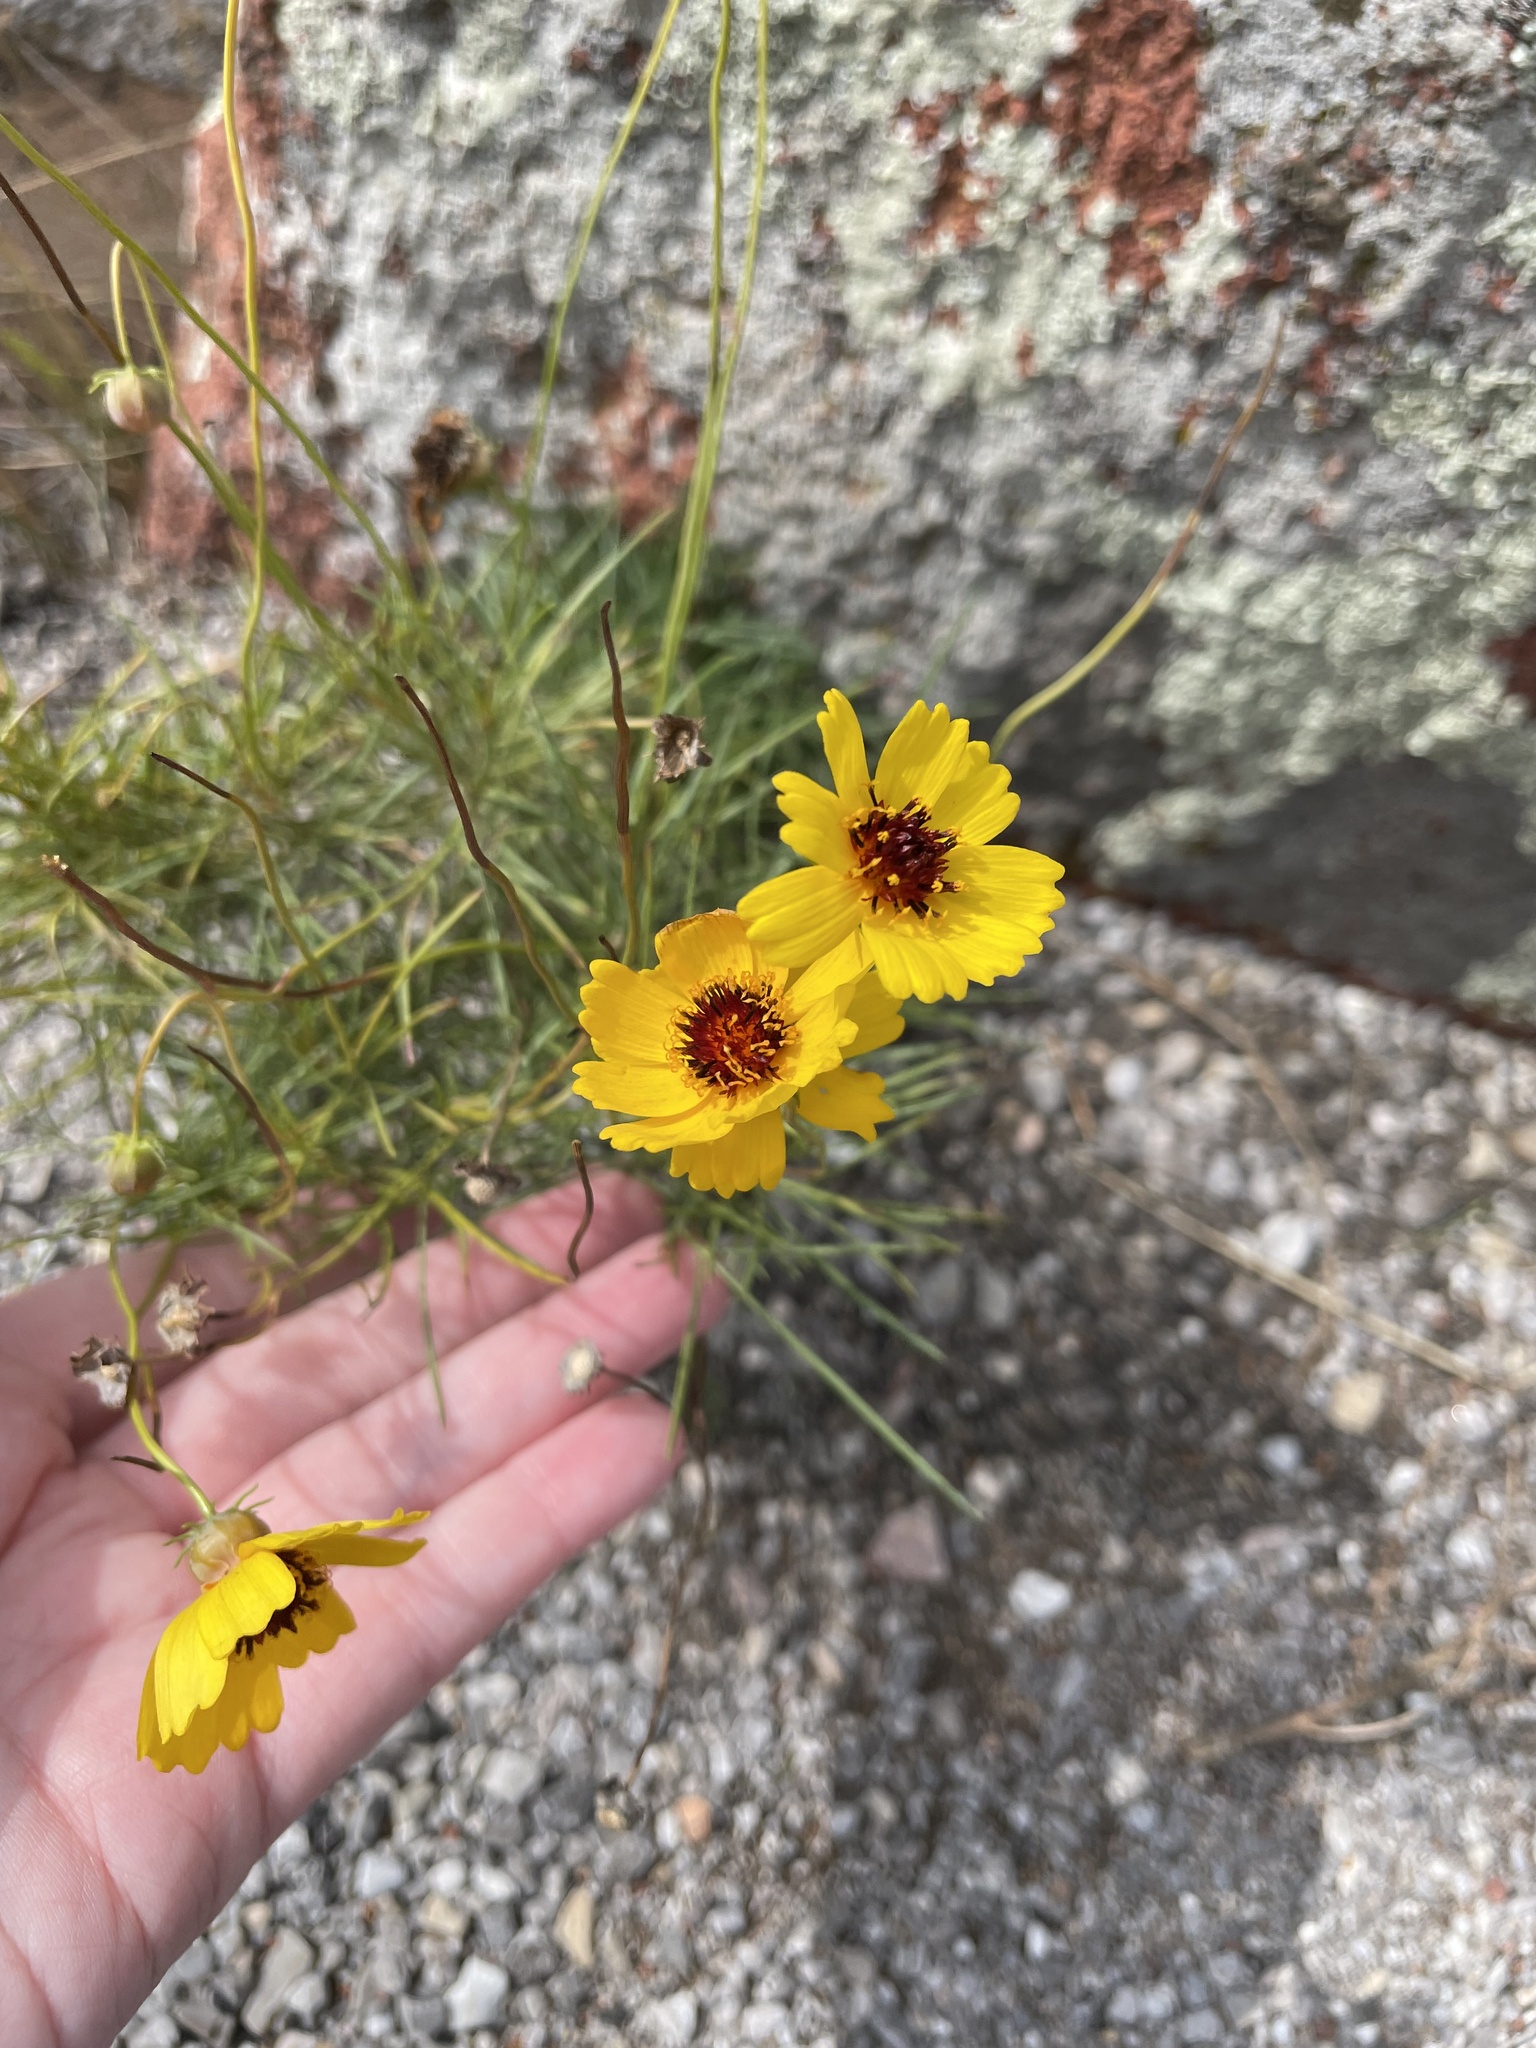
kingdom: Plantae
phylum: Tracheophyta
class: Magnoliopsida
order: Asterales
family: Asteraceae
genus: Thelesperma
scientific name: Thelesperma filifolium
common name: Stiff greenthread
